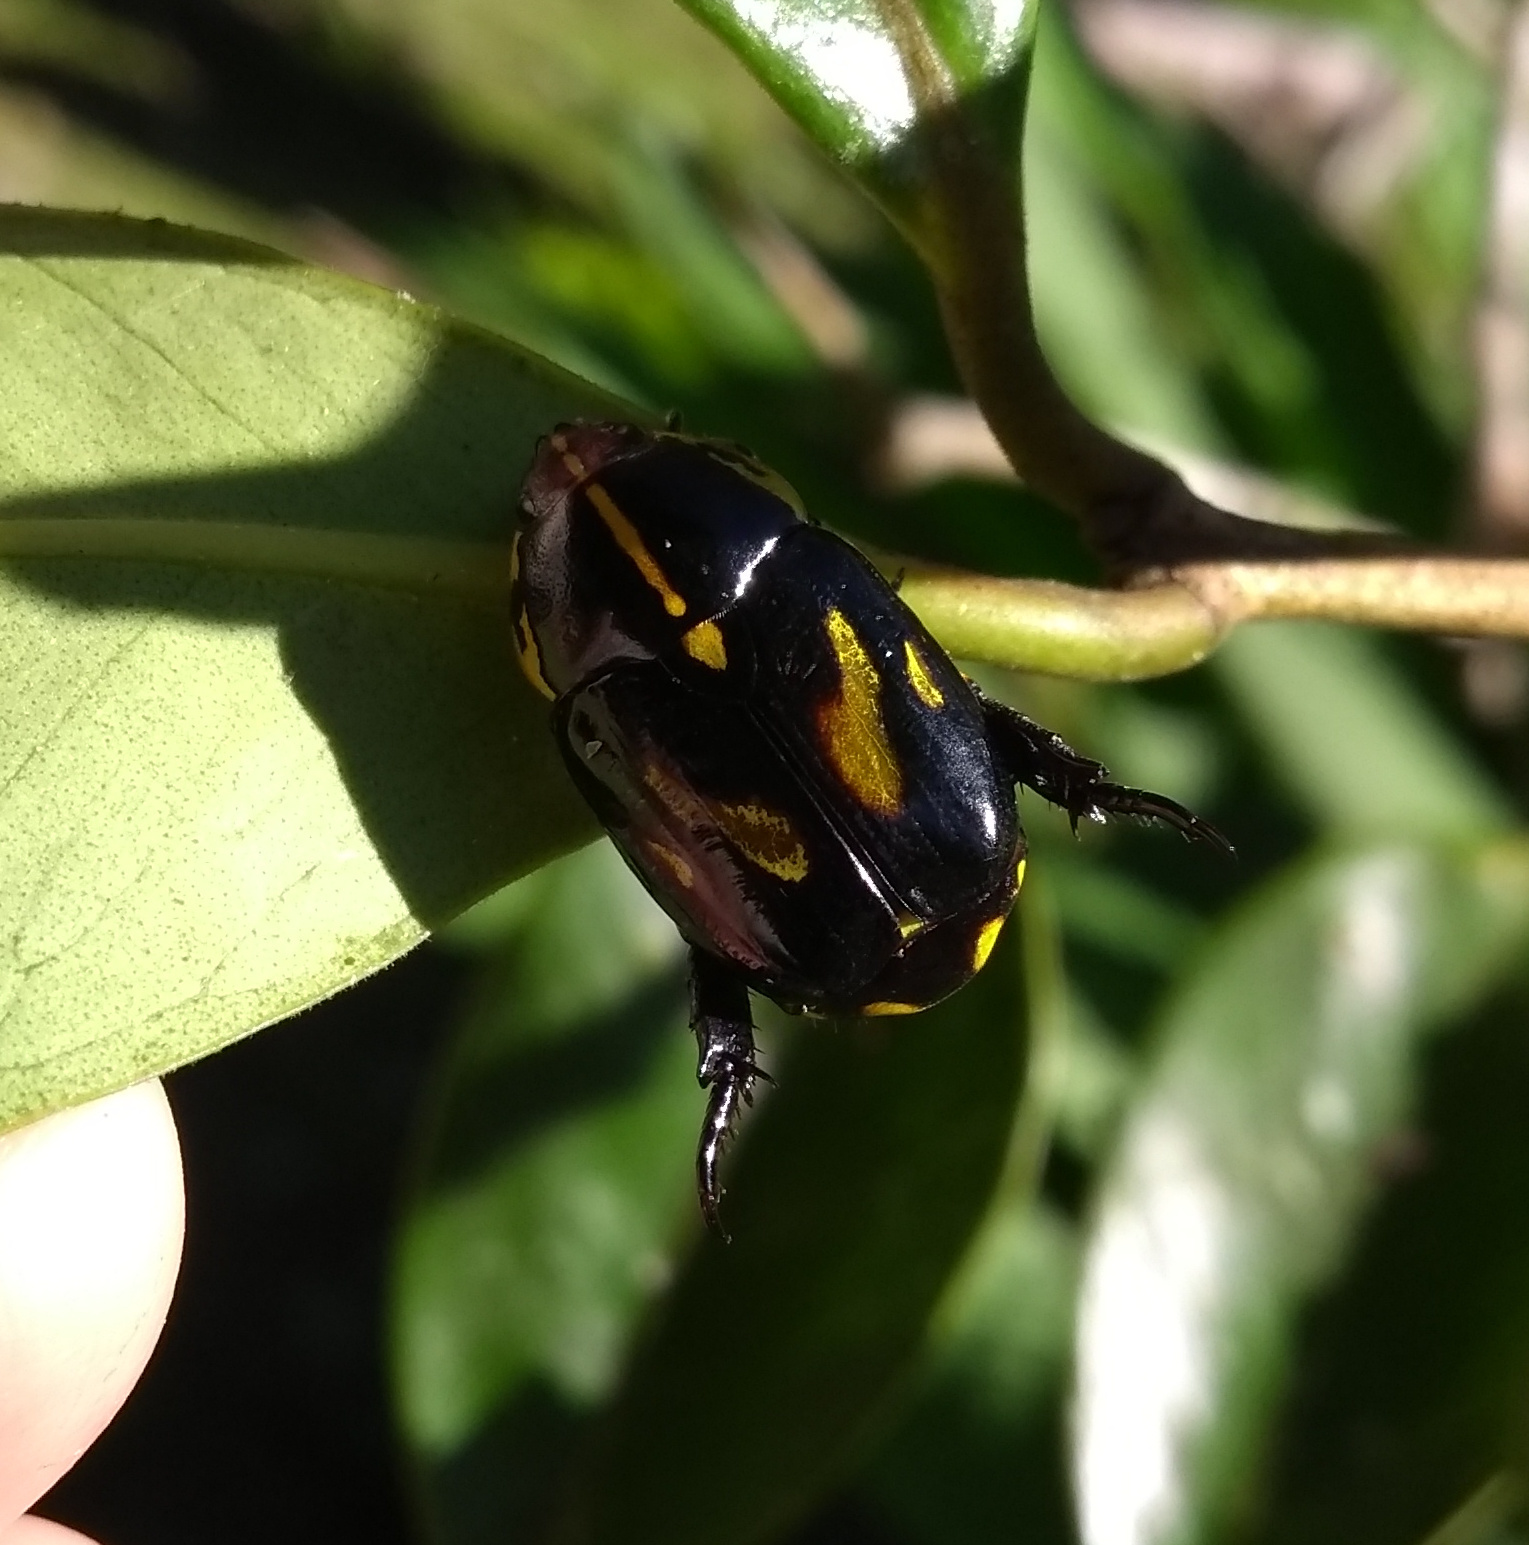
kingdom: Animalia
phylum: Arthropoda
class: Insecta
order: Coleoptera
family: Scarabaeidae
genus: Rutela
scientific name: Rutela lineola
